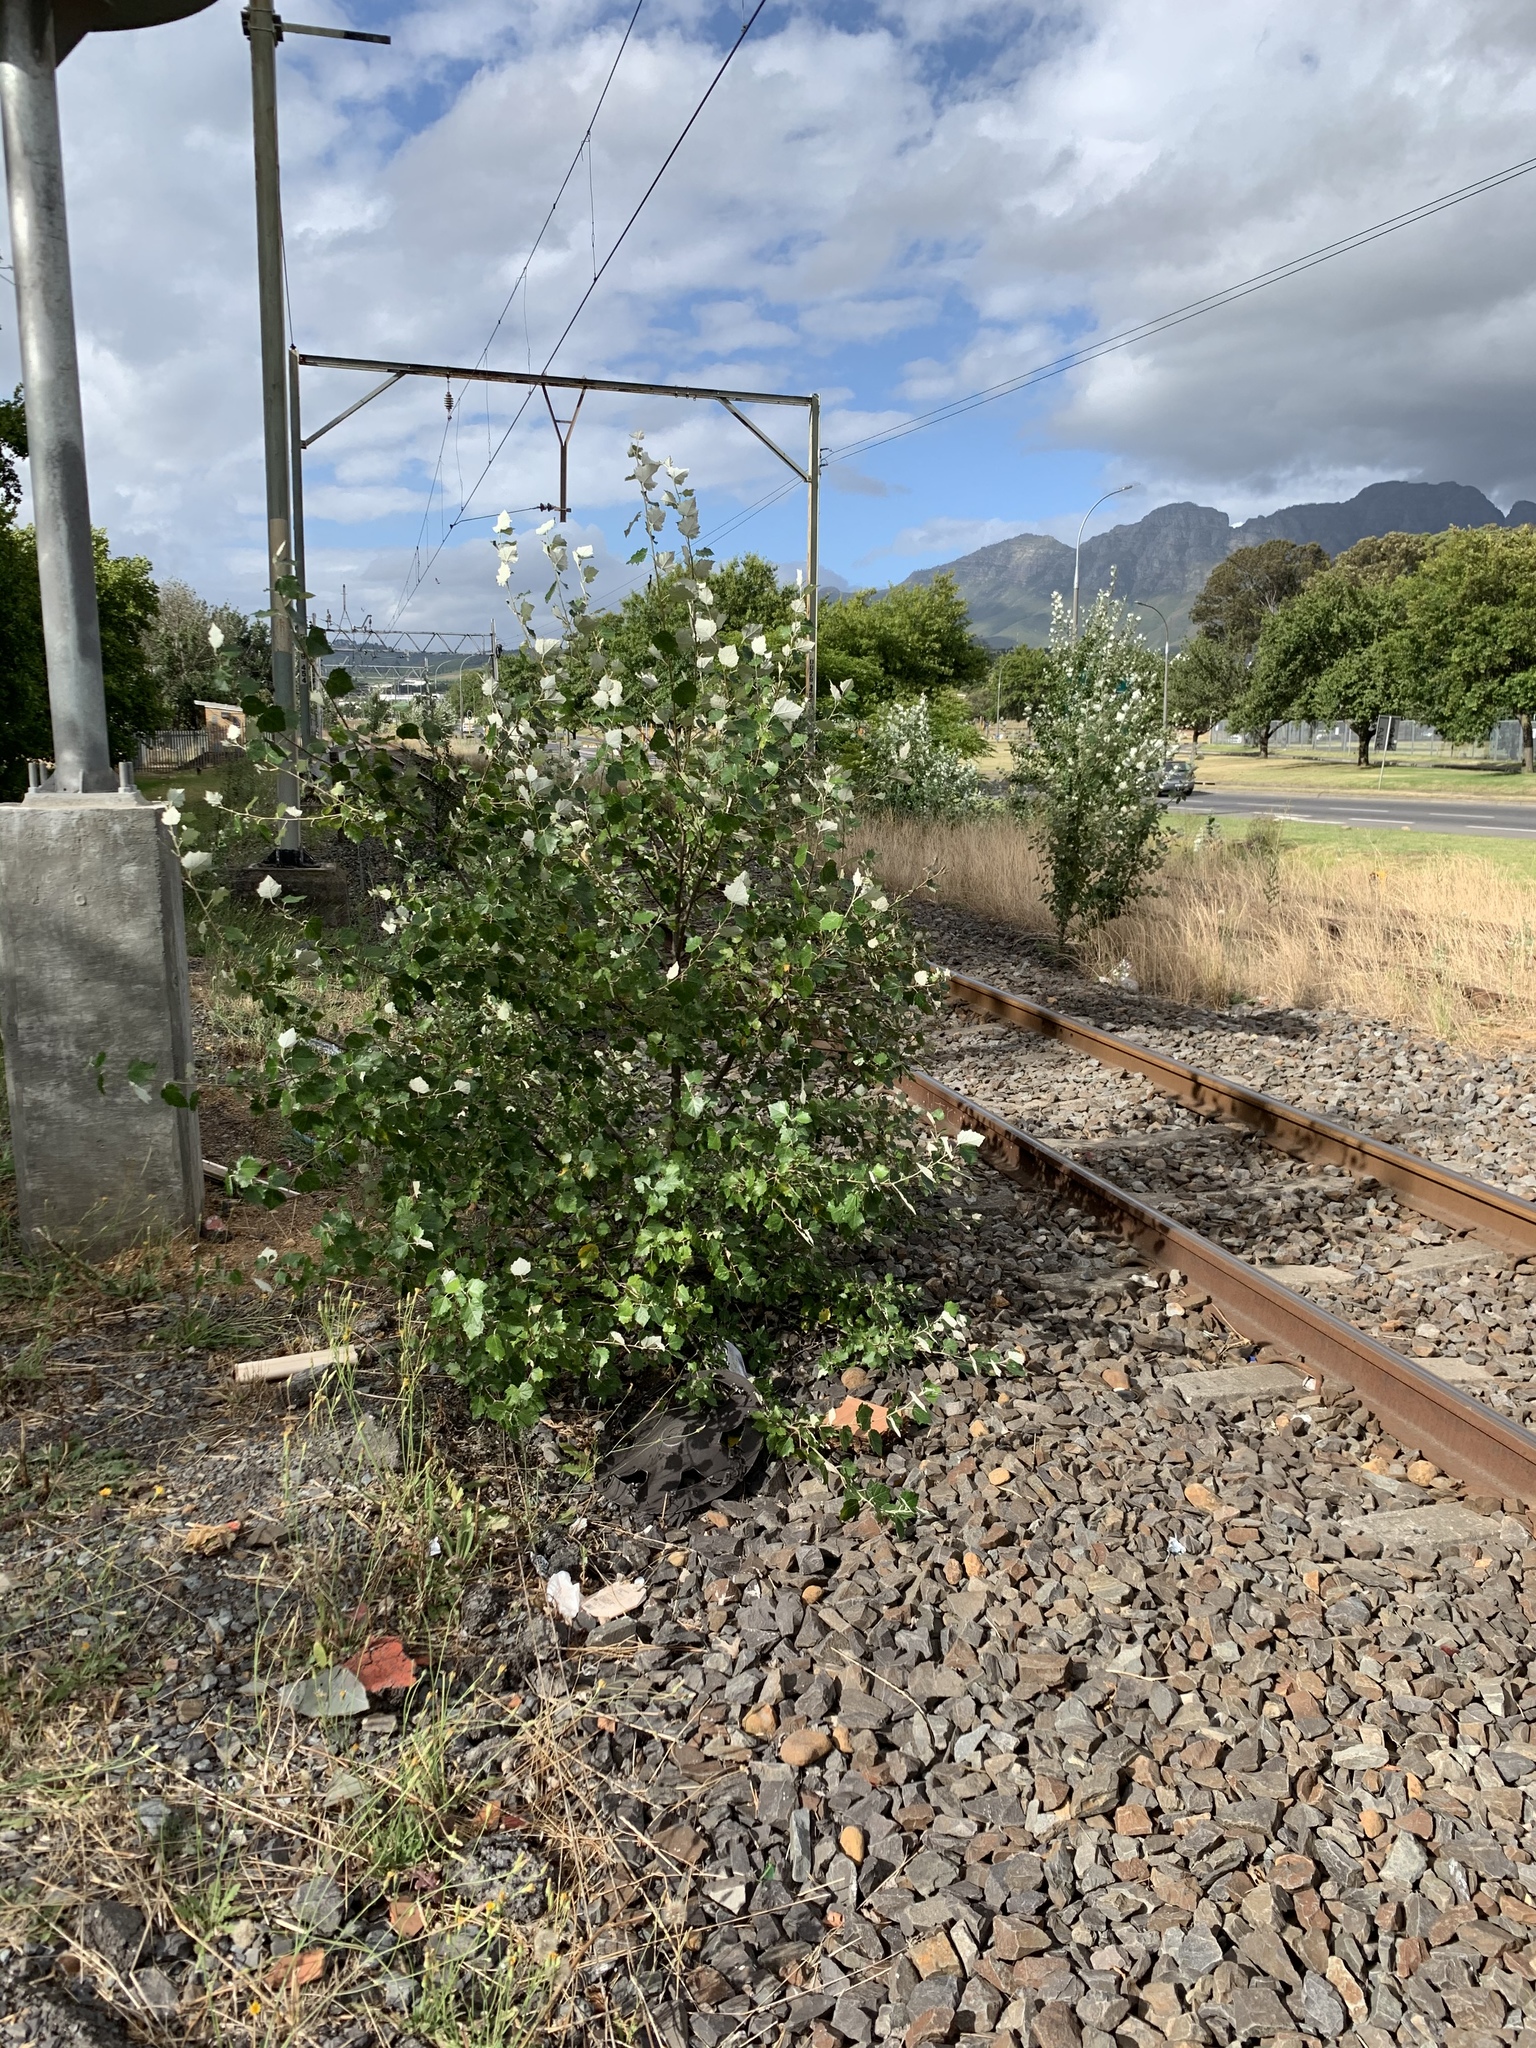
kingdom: Plantae
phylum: Tracheophyta
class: Magnoliopsida
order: Malpighiales
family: Salicaceae
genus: Populus
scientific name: Populus canescens
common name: Gray poplar
